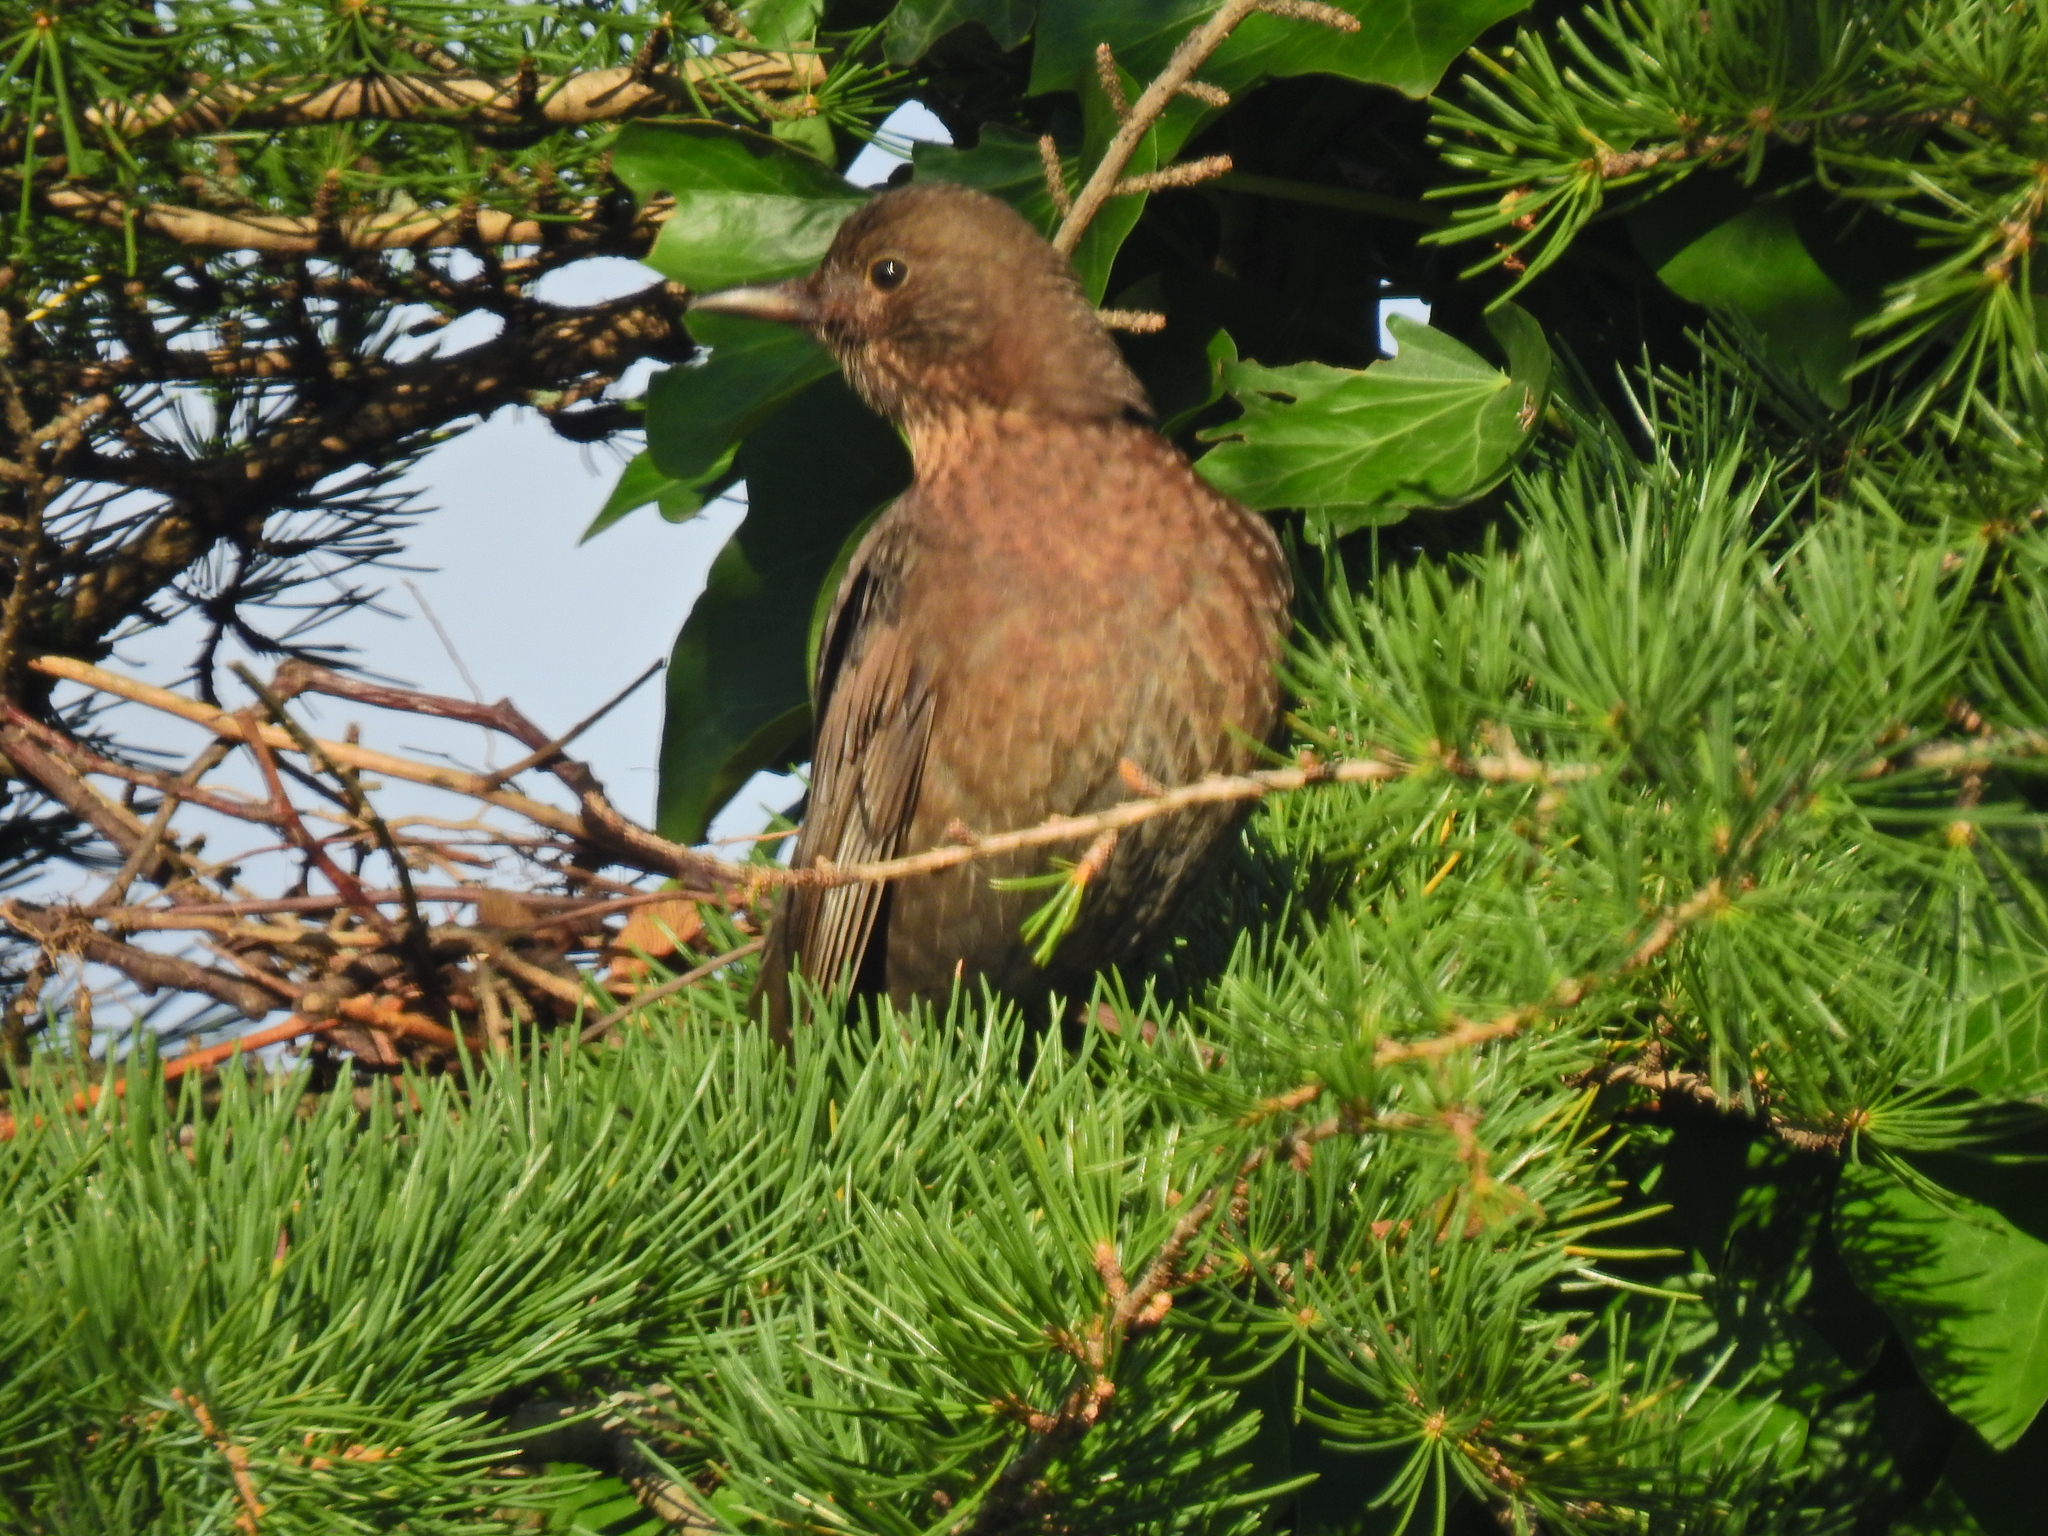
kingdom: Animalia
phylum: Chordata
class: Aves
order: Passeriformes
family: Turdidae
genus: Turdus
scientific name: Turdus merula
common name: Common blackbird
